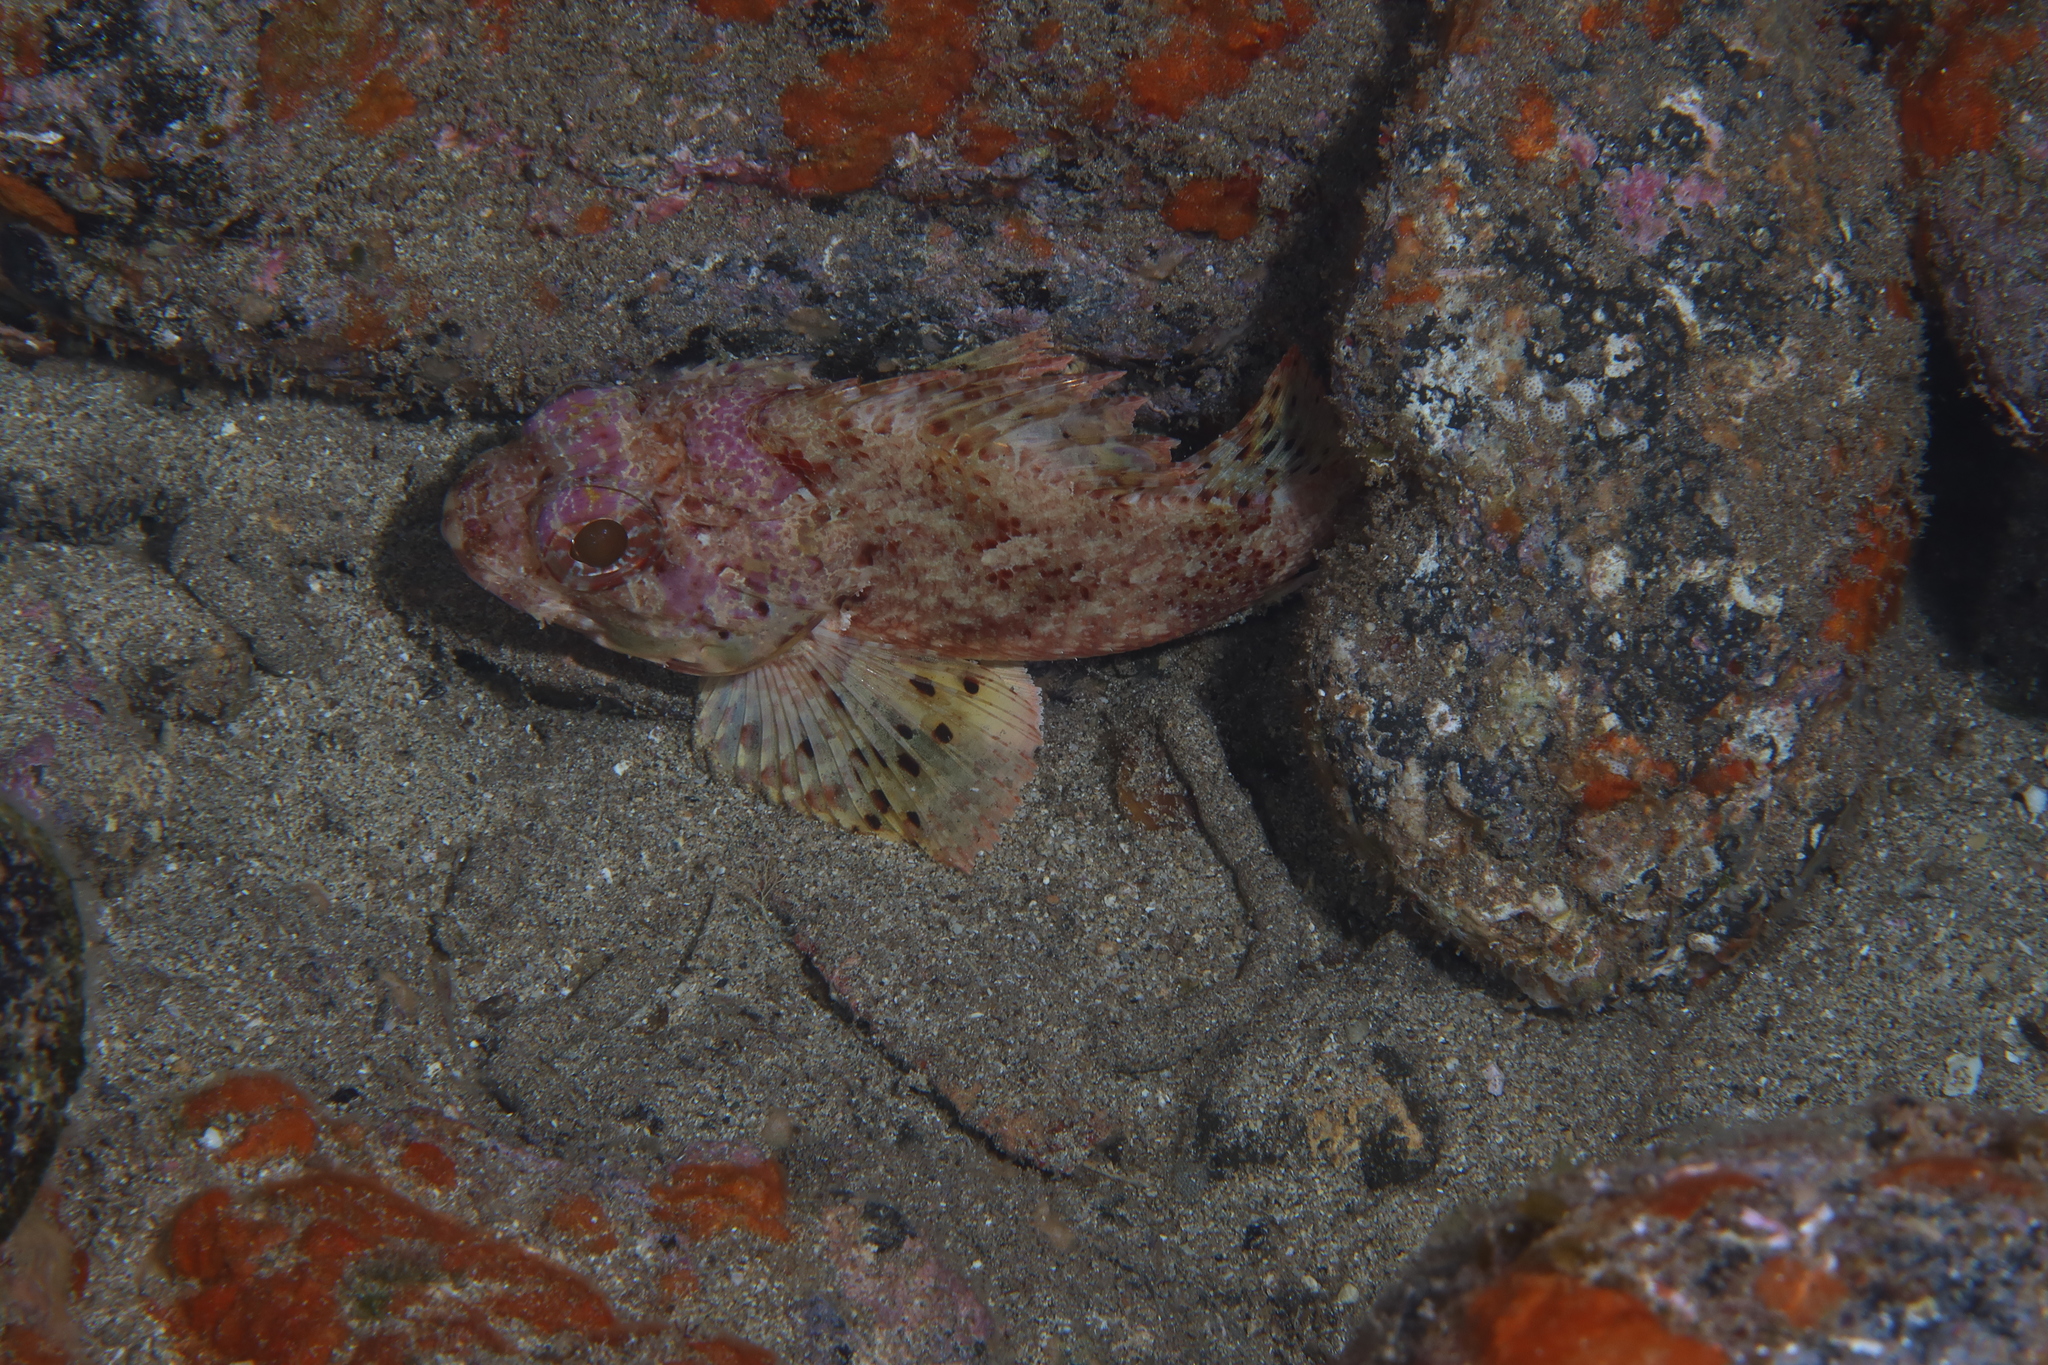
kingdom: Animalia
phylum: Chordata
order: Scorpaeniformes
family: Scorpaenidae
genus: Scorpaena
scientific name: Scorpaena notata
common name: Small red scorpionfish
